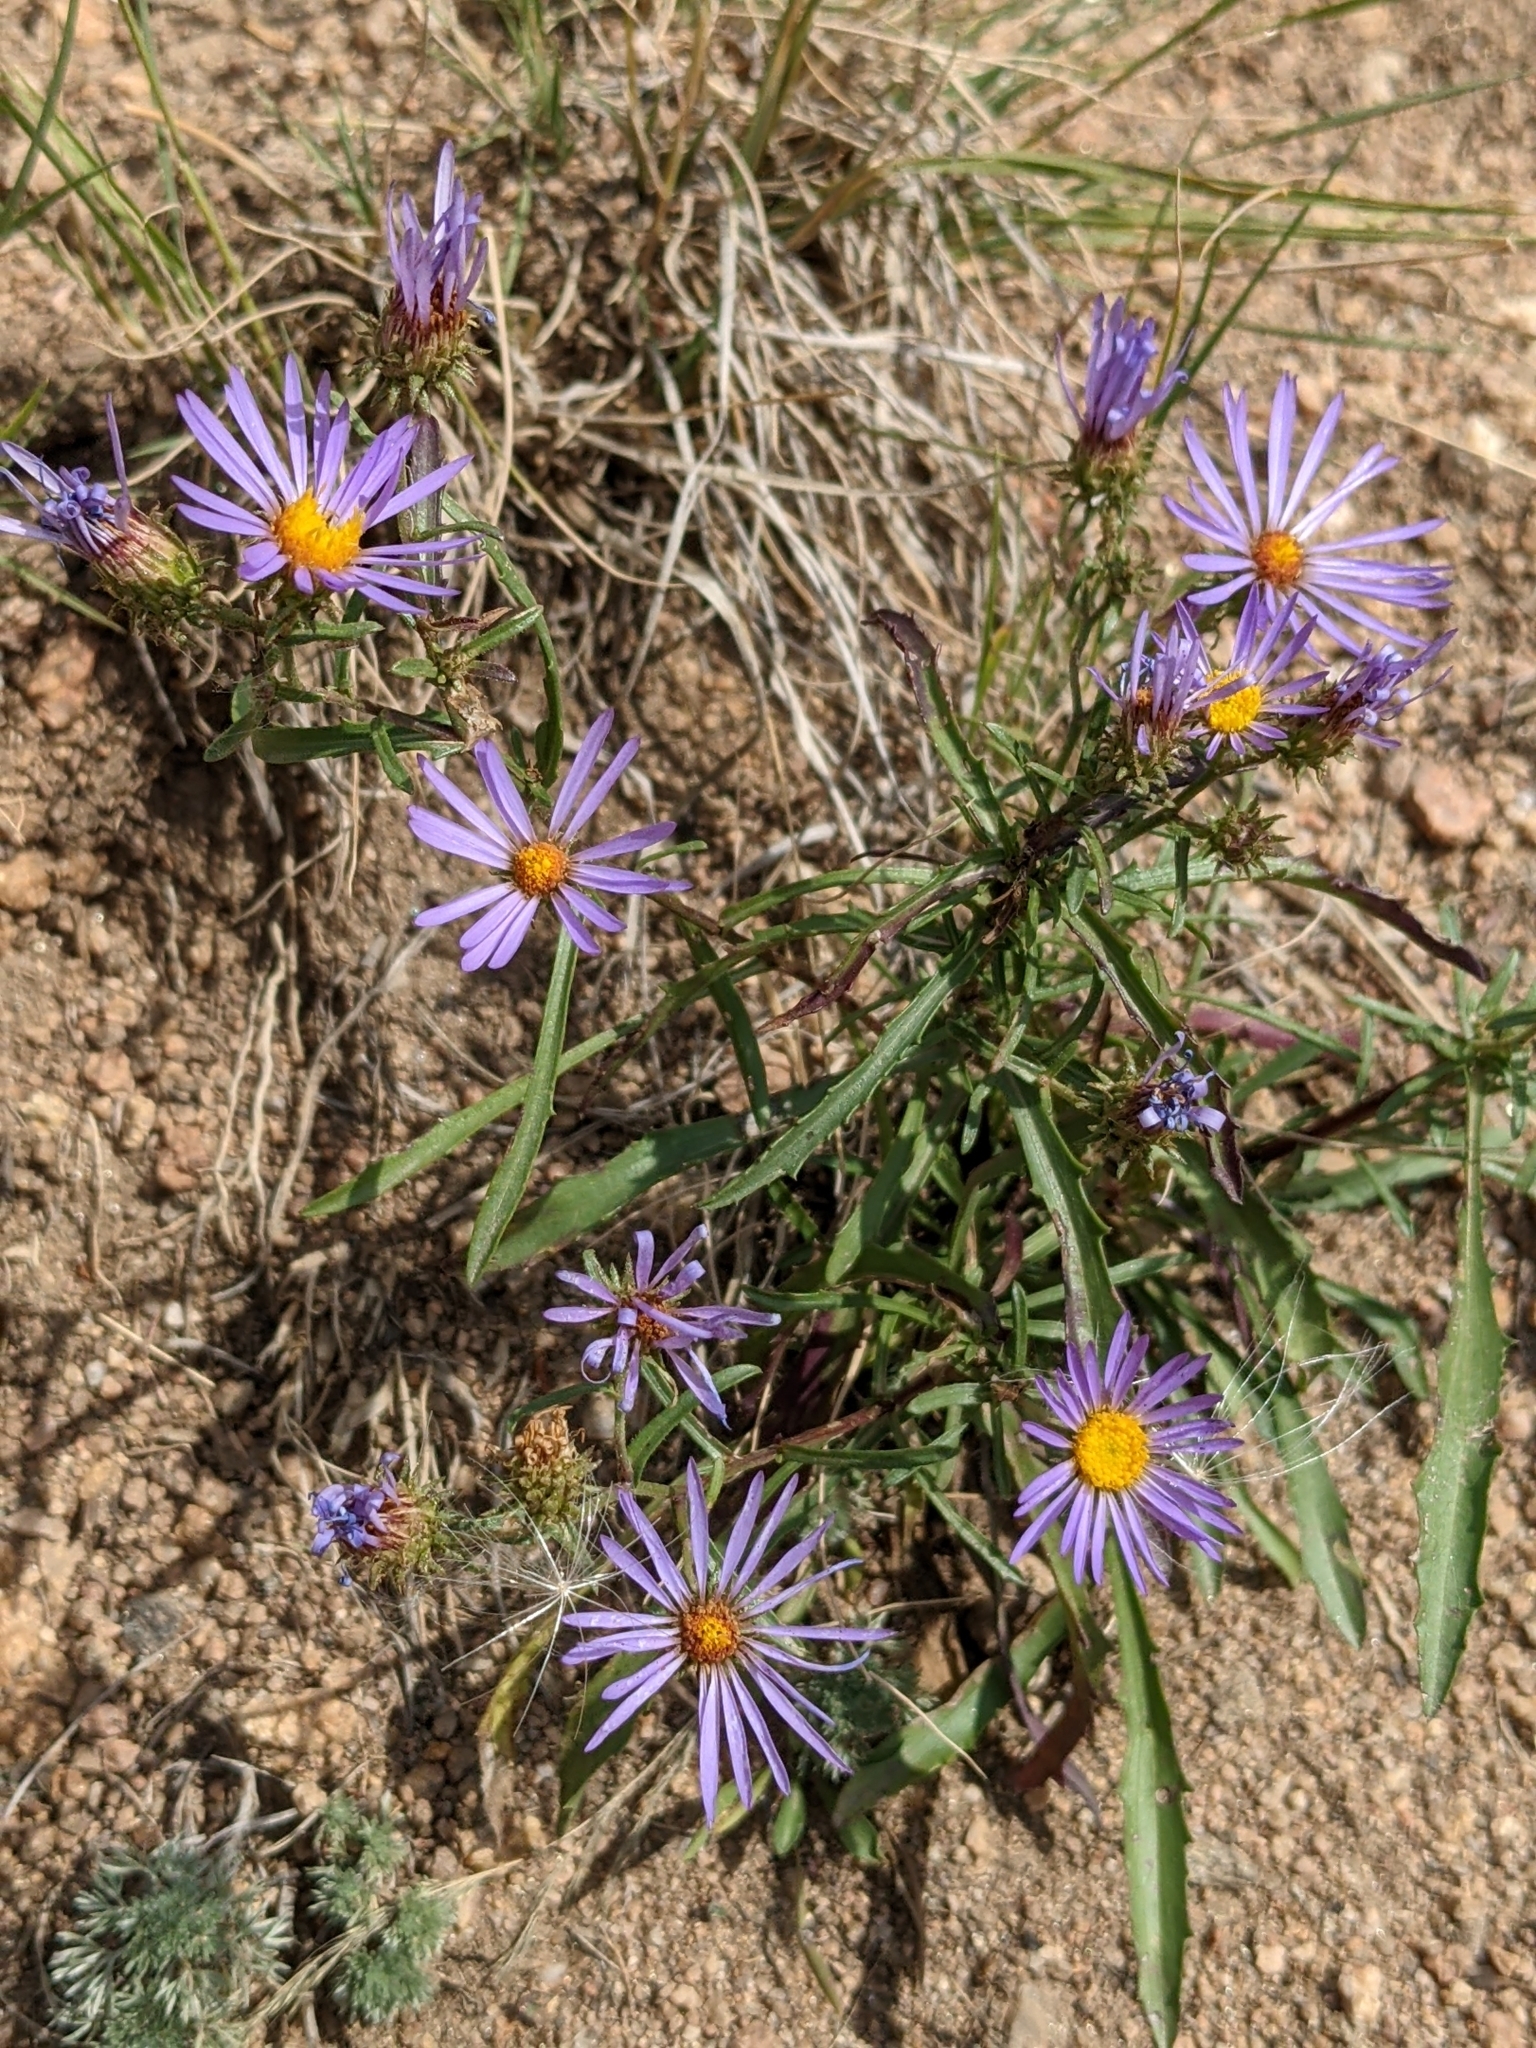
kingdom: Plantae
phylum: Tracheophyta
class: Magnoliopsida
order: Asterales
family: Asteraceae
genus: Dieteria
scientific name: Dieteria canescens
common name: Hoary-aster
